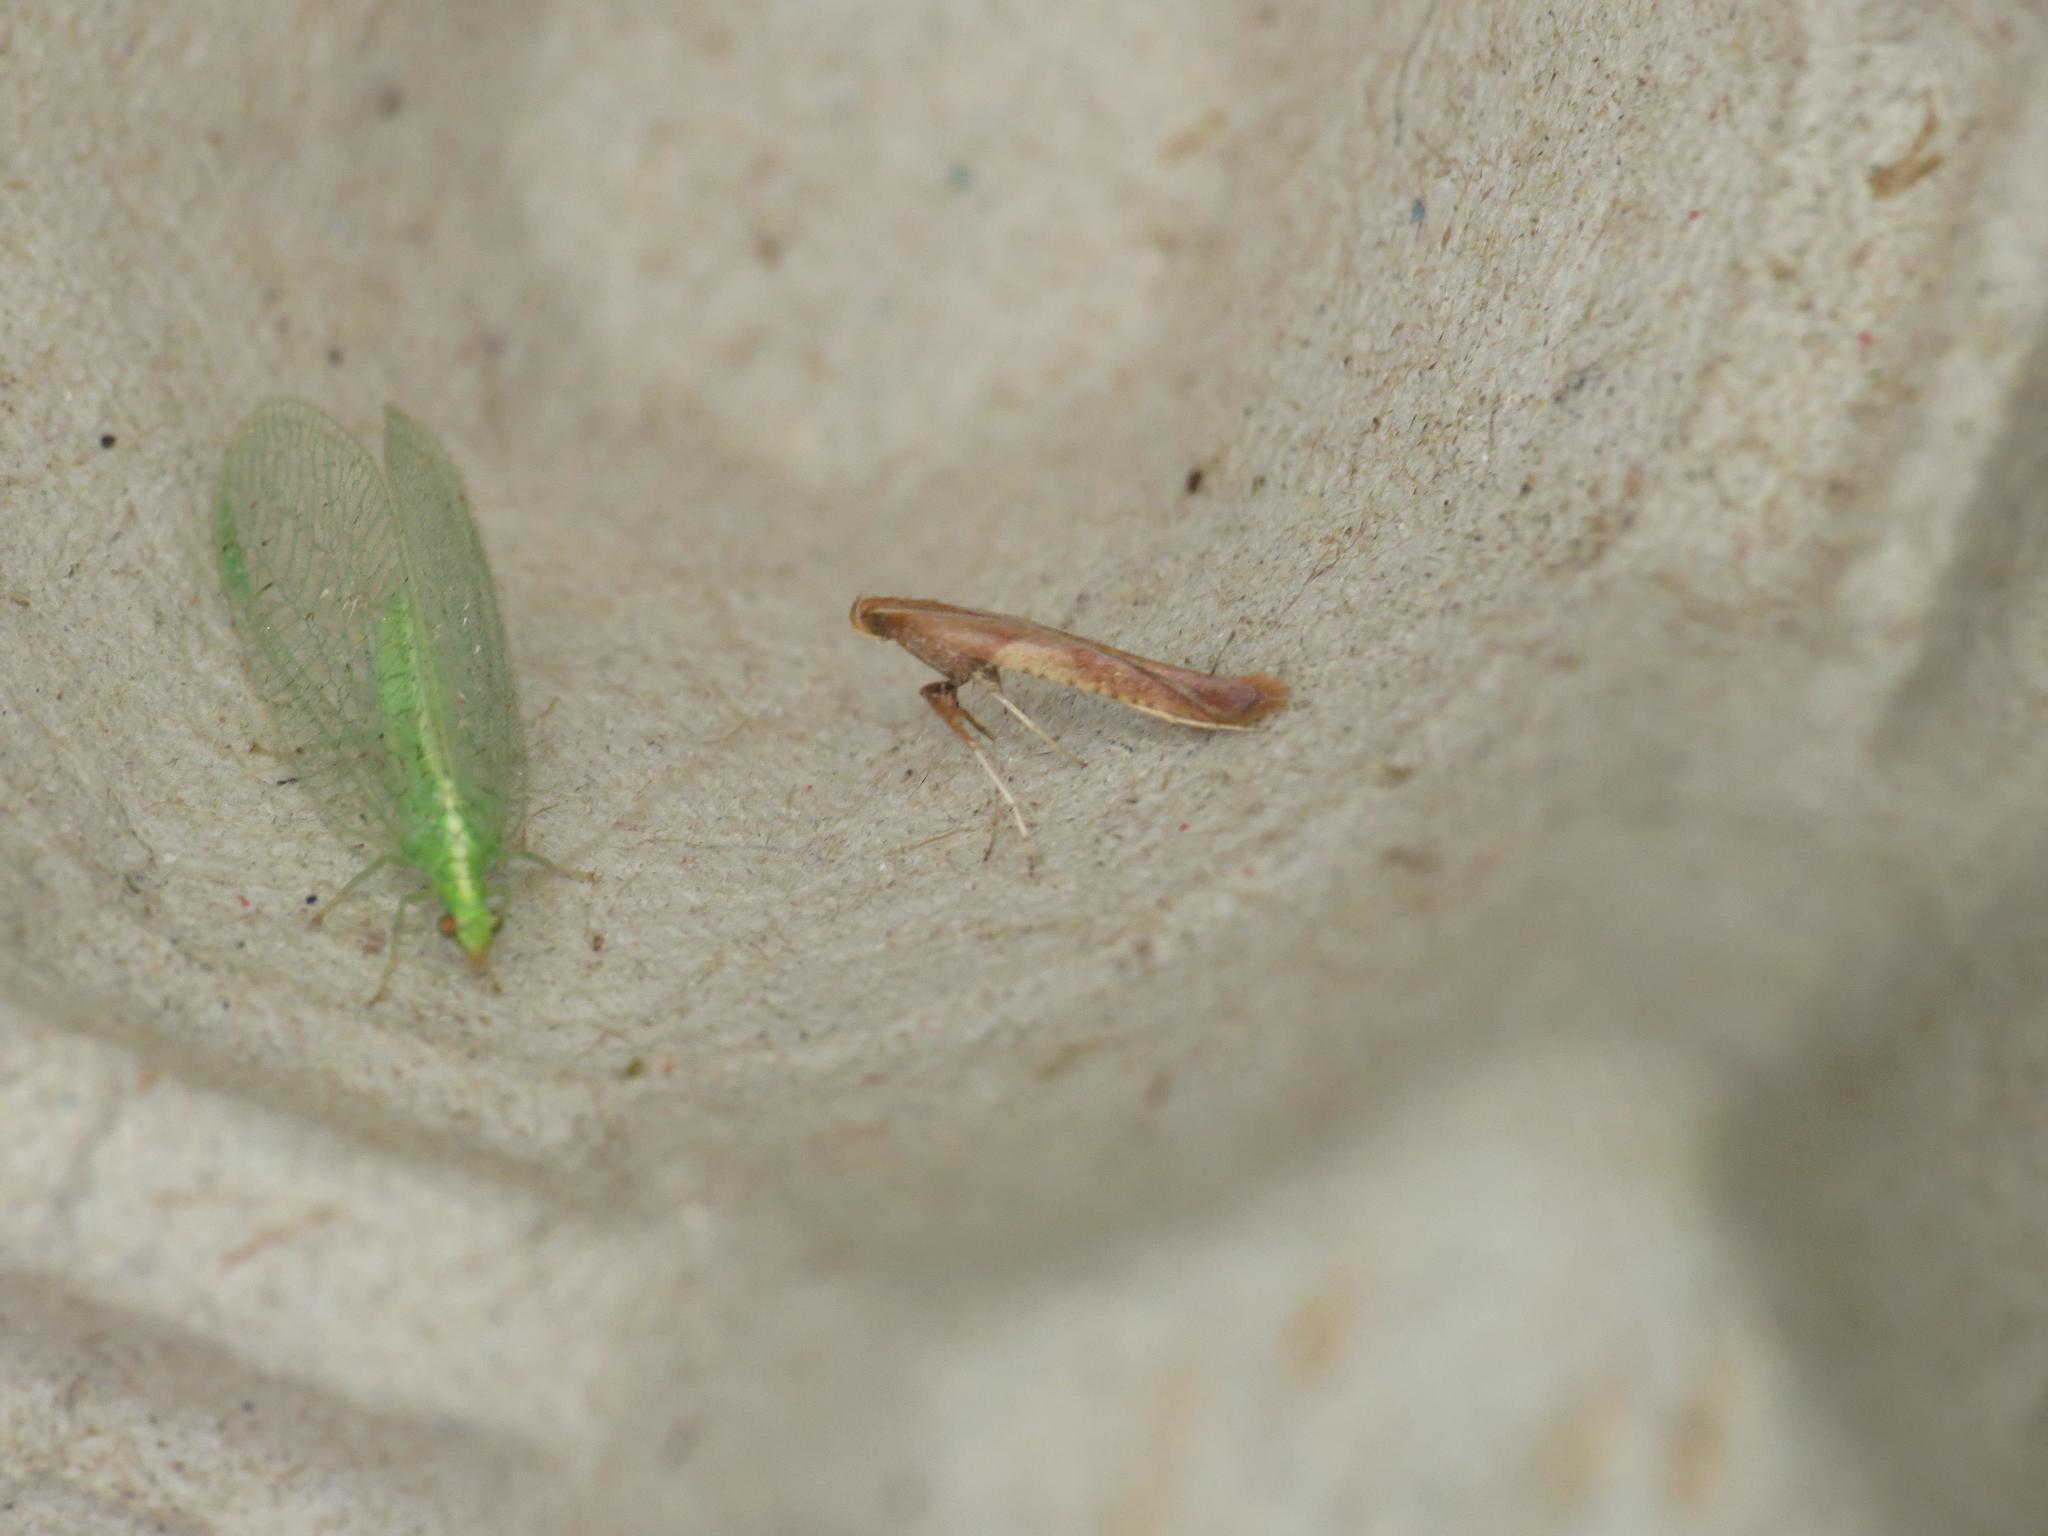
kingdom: Animalia
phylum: Arthropoda
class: Insecta
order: Lepidoptera
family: Gracillariidae
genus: Caloptilia
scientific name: Caloptilia falconipennella
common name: Scarce alder slender
